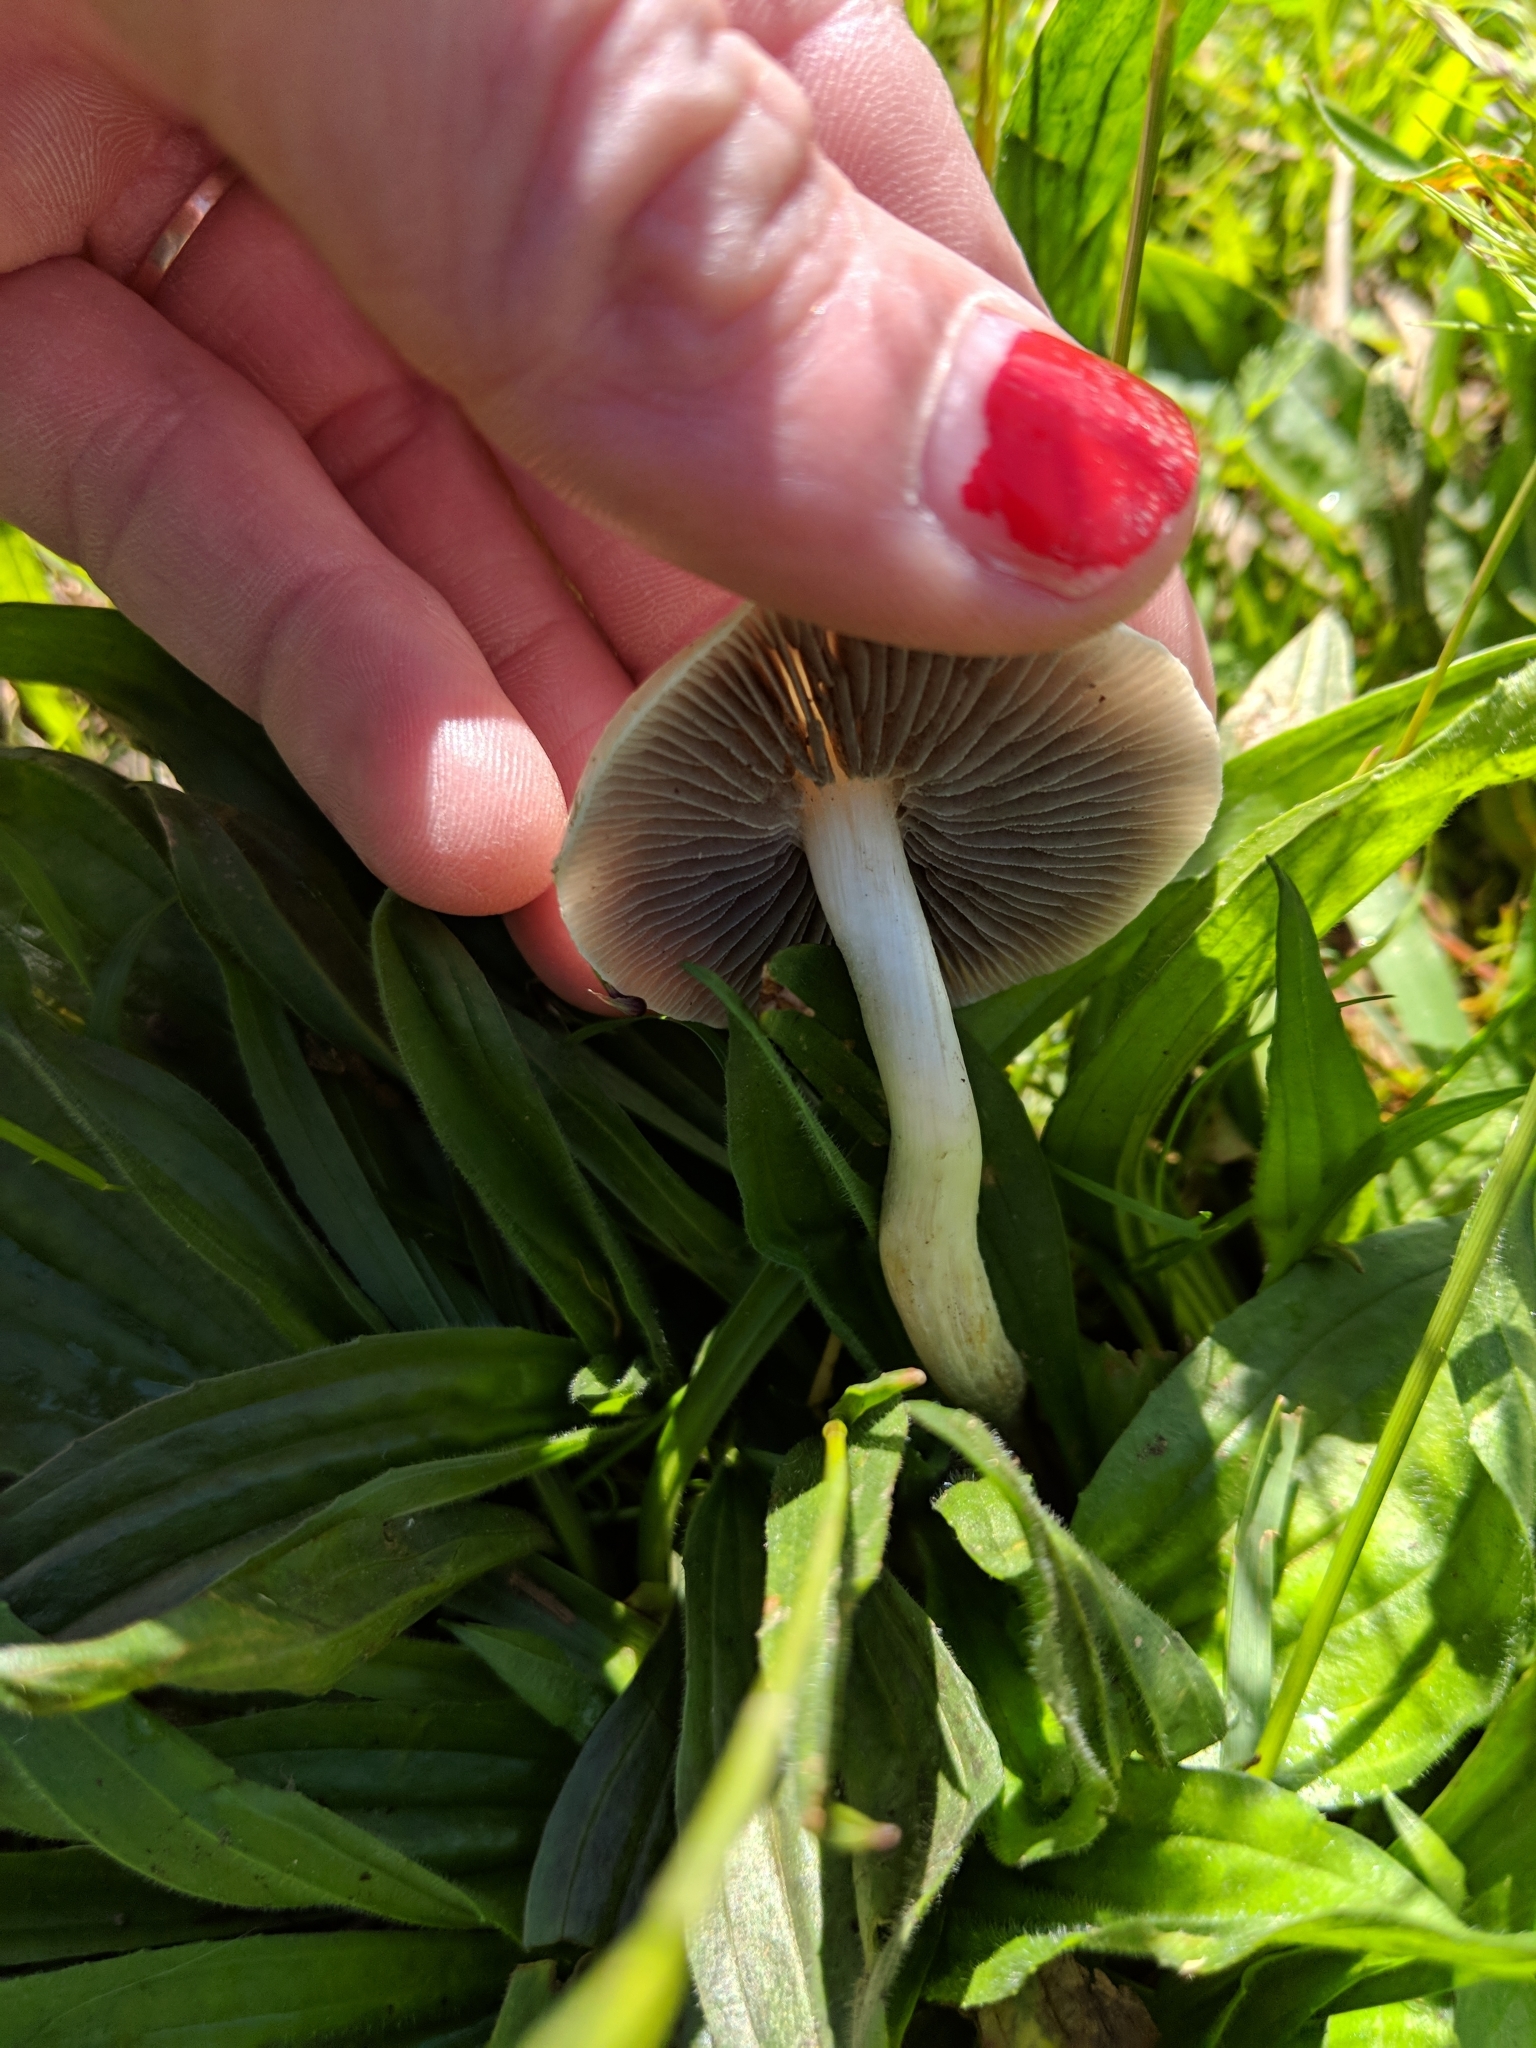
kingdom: Fungi
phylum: Basidiomycota
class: Agaricomycetes
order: Agaricales
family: Strophariaceae
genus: Agrocybe
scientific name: Agrocybe molesta
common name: Bearded fieldcap
